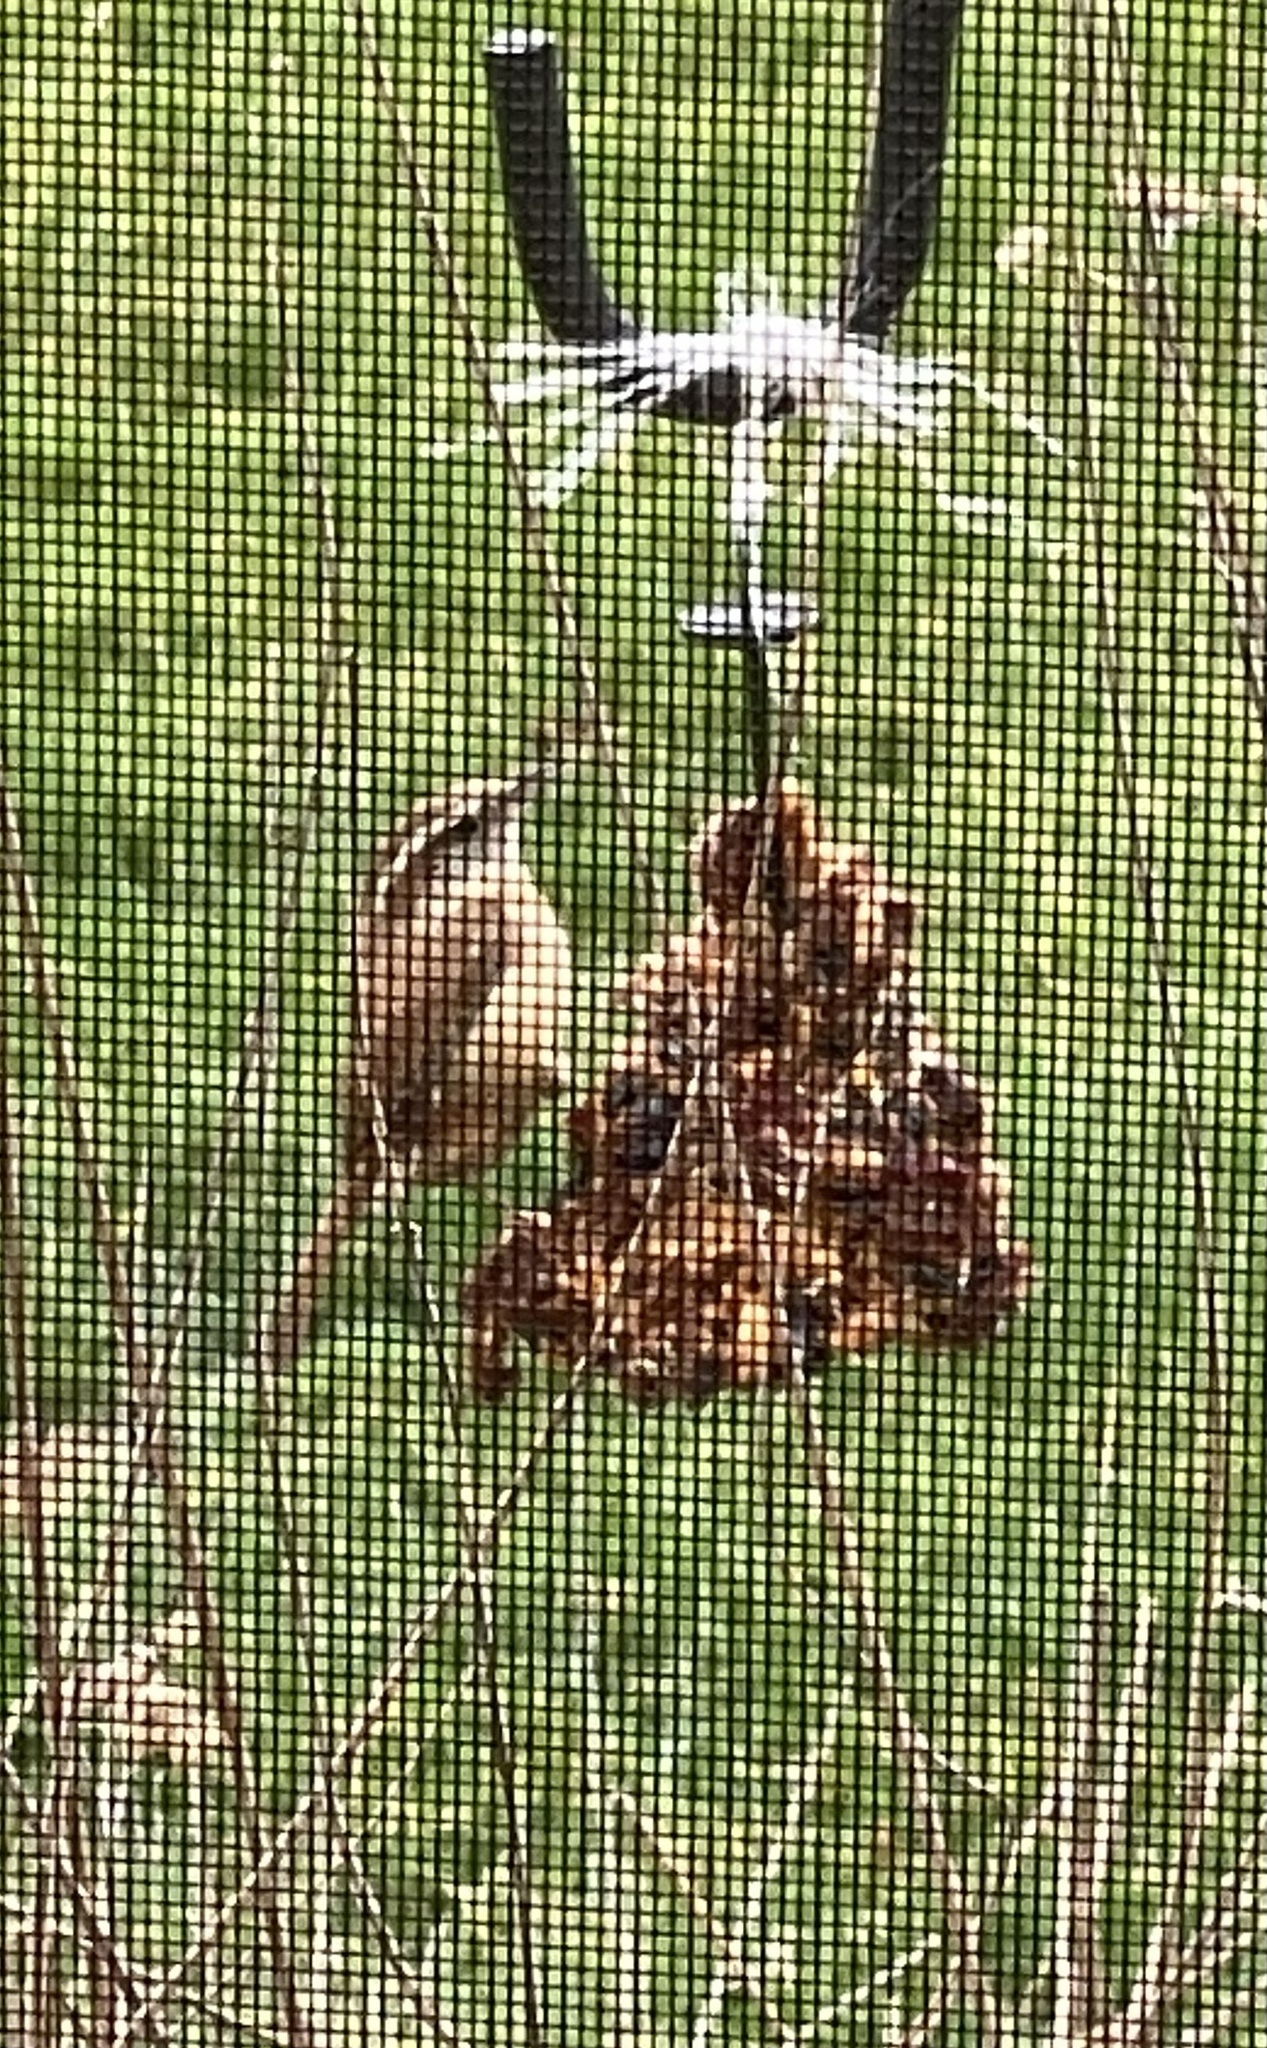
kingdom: Animalia
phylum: Chordata
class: Aves
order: Passeriformes
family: Troglodytidae
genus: Thryothorus
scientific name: Thryothorus ludovicianus
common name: Carolina wren
